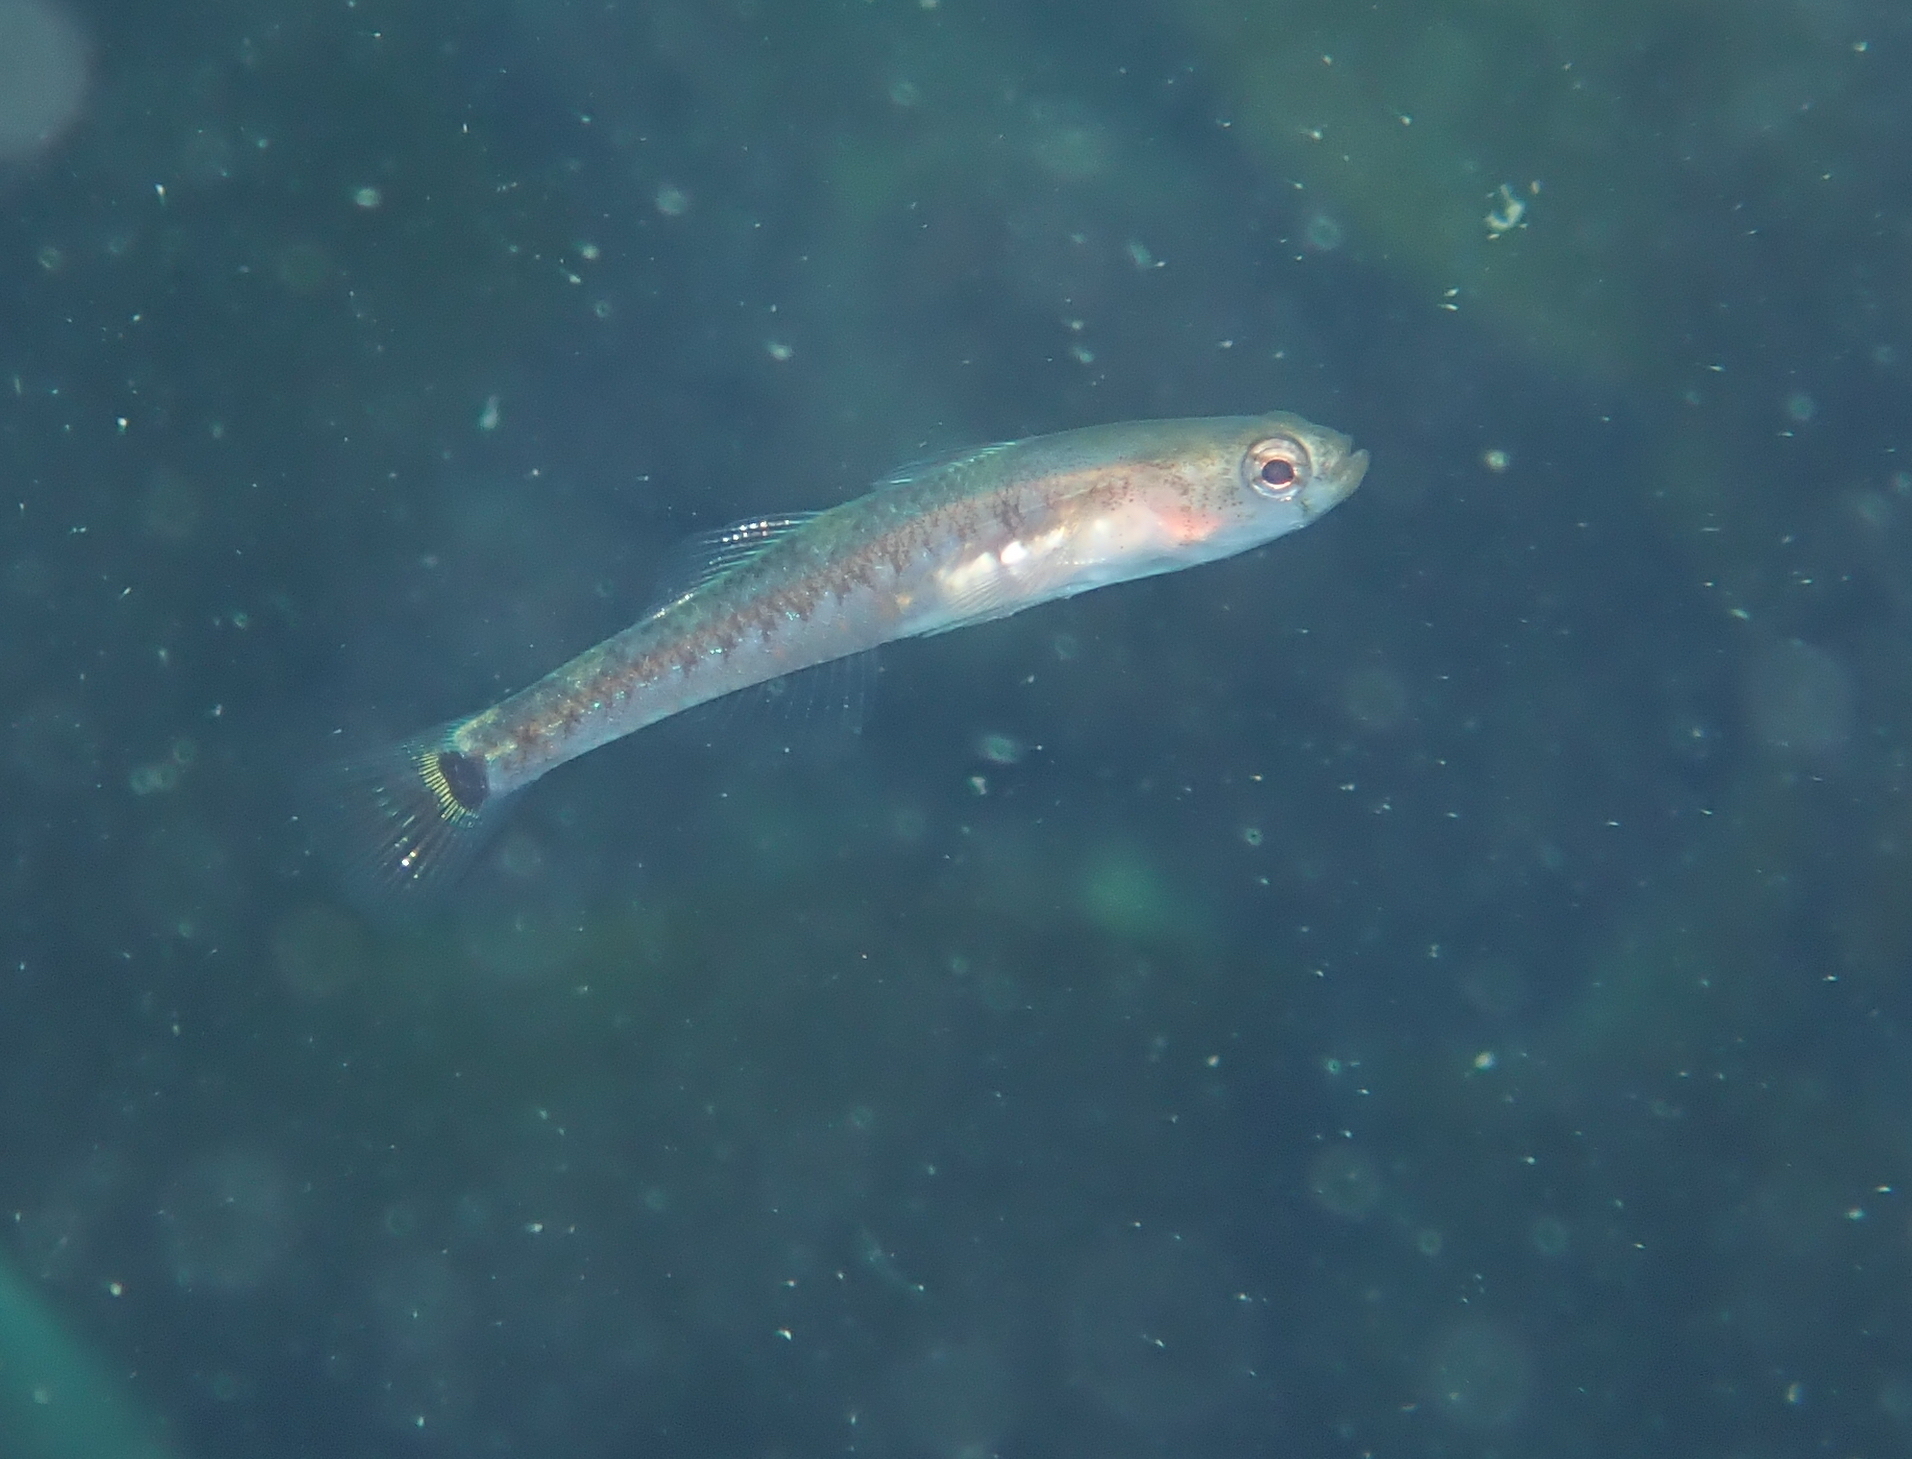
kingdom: Animalia
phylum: Chordata
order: Perciformes
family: Gobiidae
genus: Gobiusculus
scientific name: Gobiusculus flavescens
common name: Two-spotted goby
